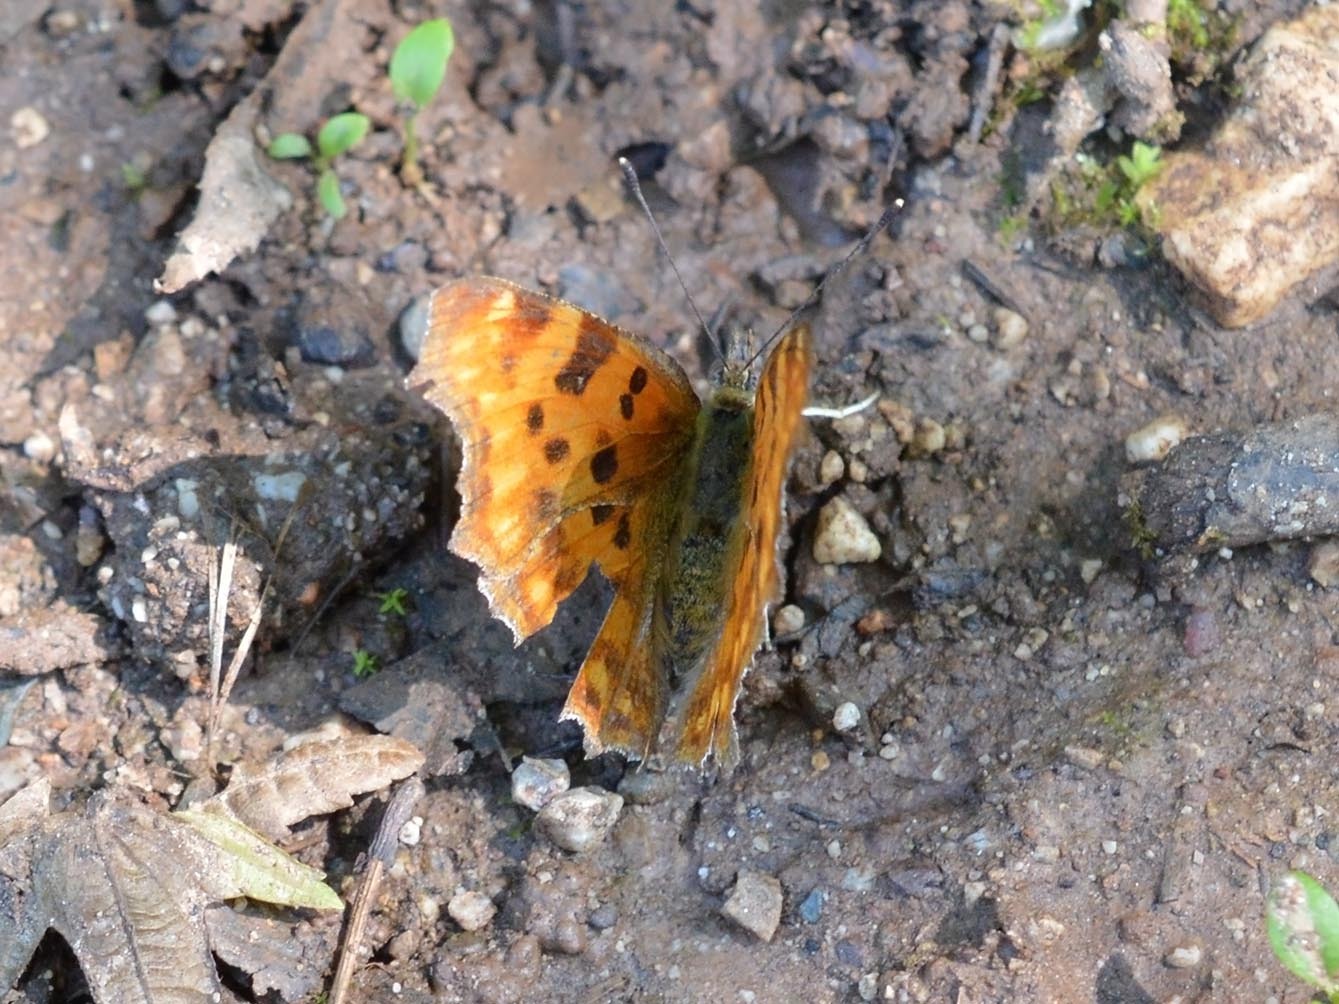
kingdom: Animalia
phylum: Arthropoda
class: Insecta
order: Lepidoptera
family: Nymphalidae
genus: Polygonia
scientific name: Polygonia c-album
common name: Comma
